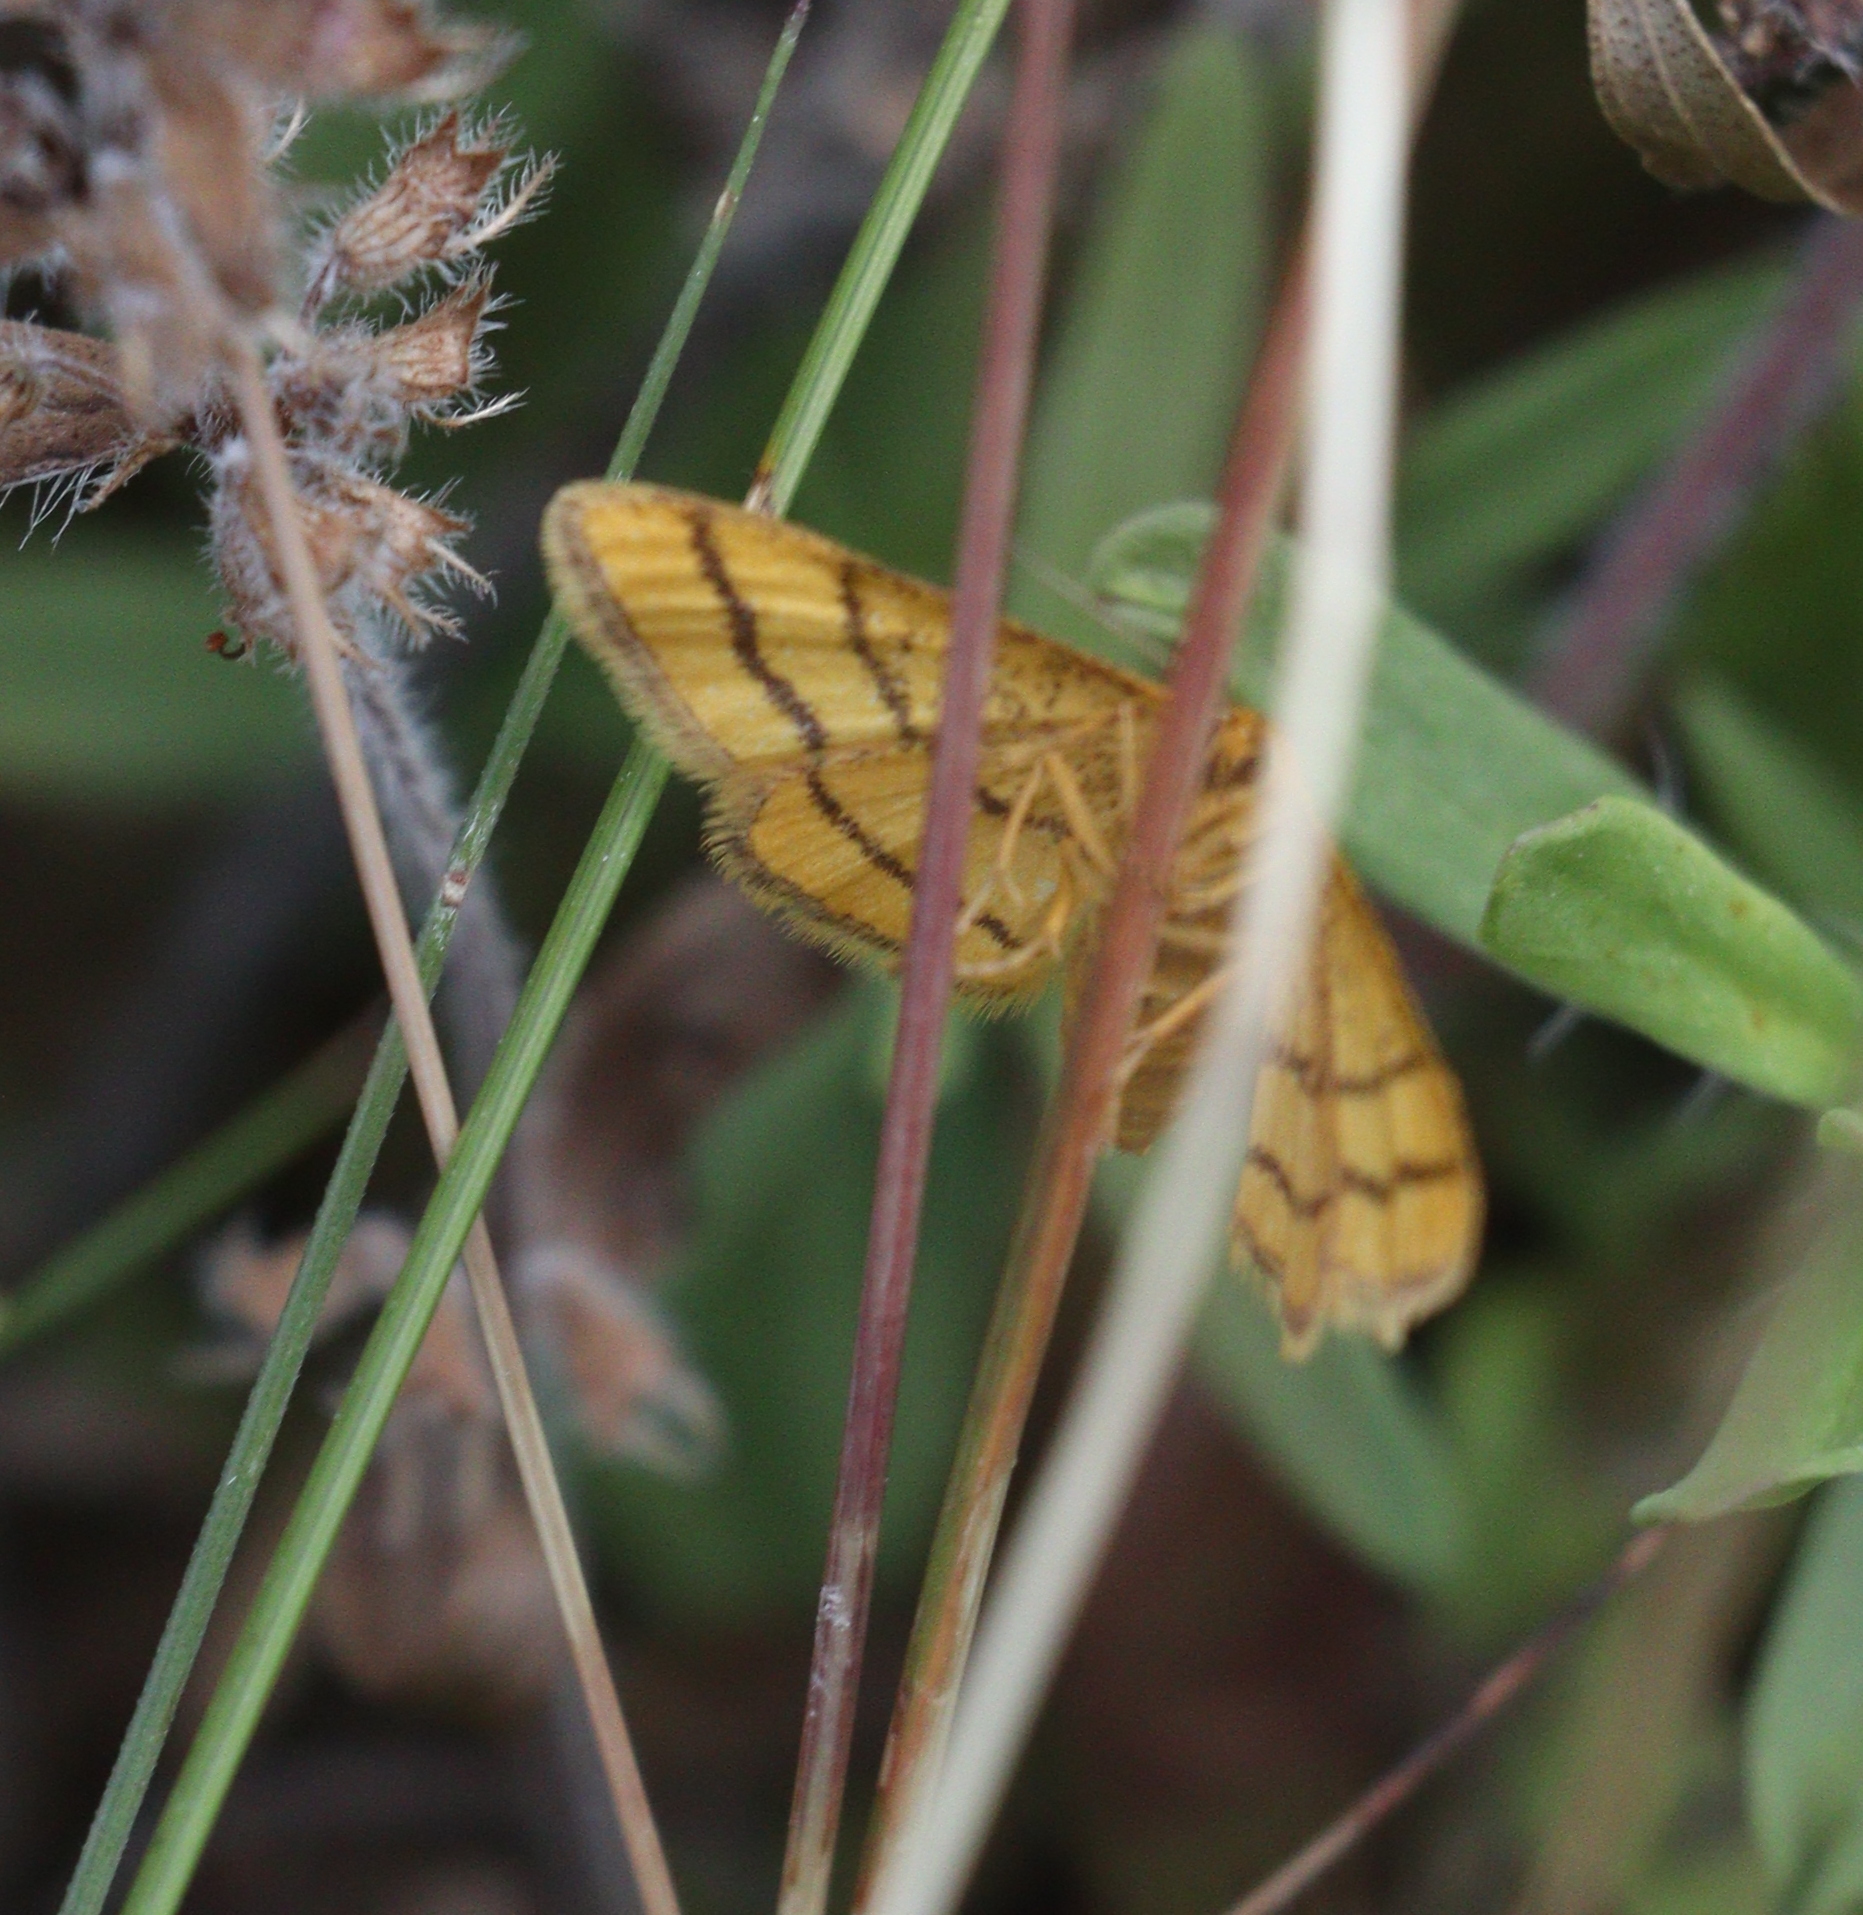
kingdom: Animalia
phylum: Arthropoda
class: Insecta
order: Lepidoptera
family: Geometridae
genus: Idaea
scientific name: Idaea aureolaria
